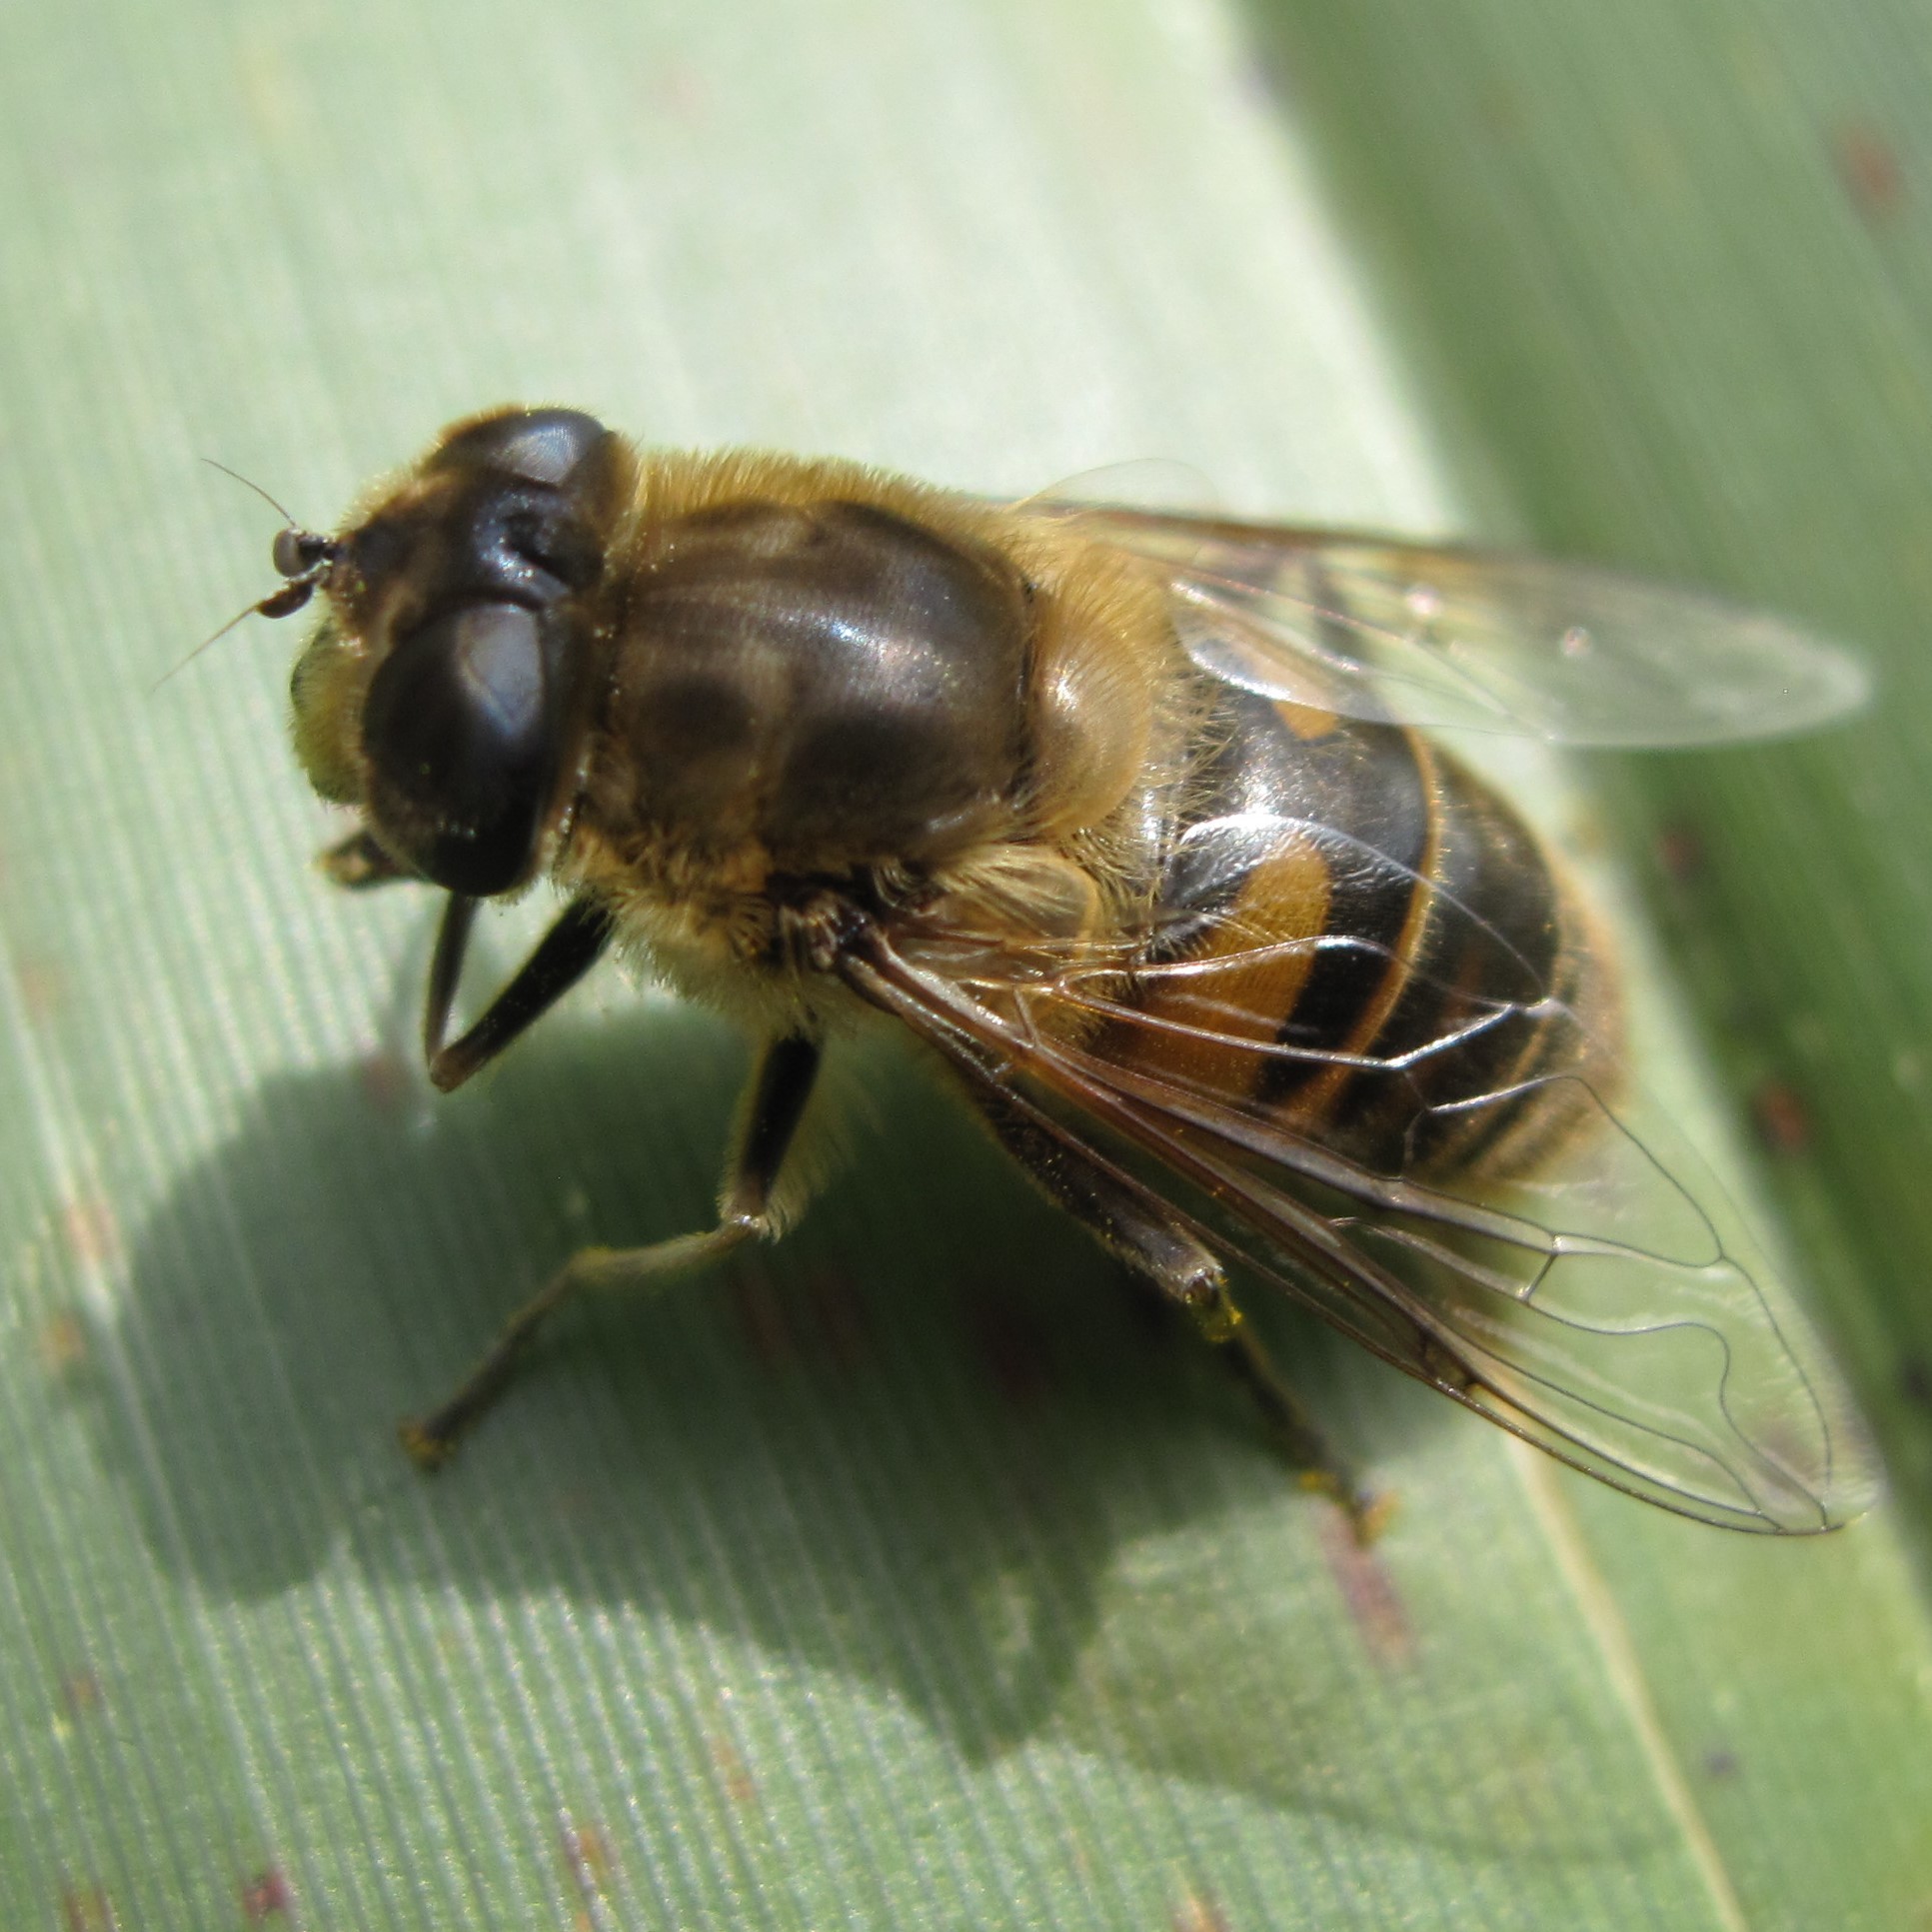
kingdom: Animalia
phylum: Arthropoda
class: Insecta
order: Diptera
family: Syrphidae
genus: Eristalis
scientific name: Eristalis tenax
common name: Drone fly
